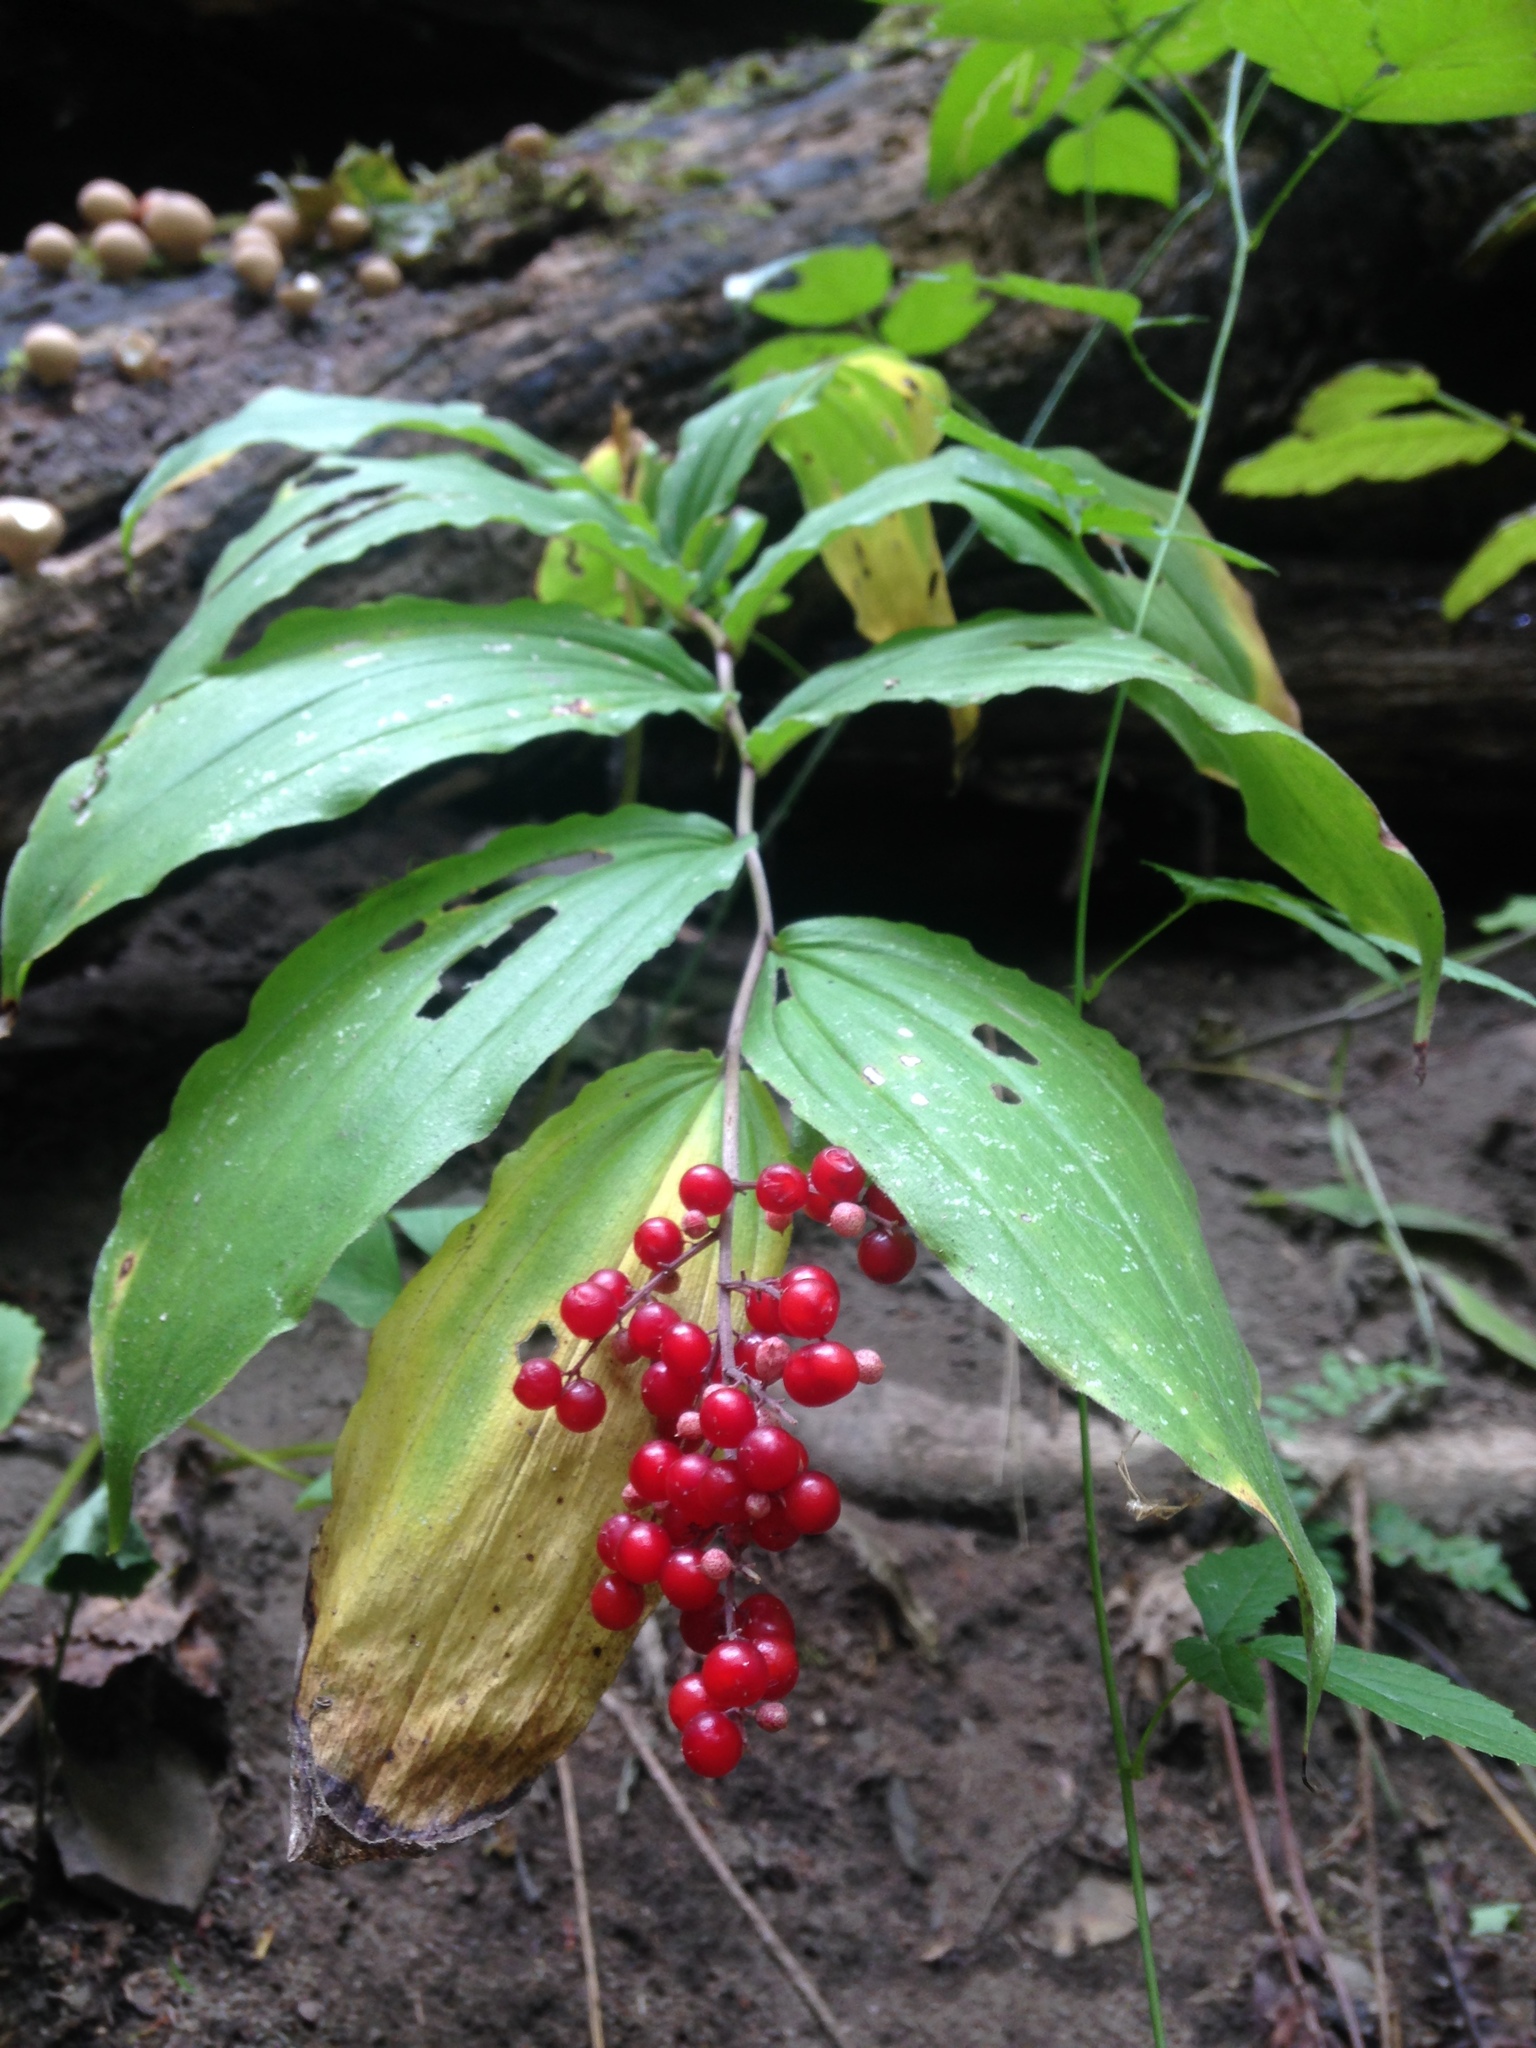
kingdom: Plantae
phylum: Tracheophyta
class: Liliopsida
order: Asparagales
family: Asparagaceae
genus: Maianthemum
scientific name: Maianthemum racemosum
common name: False spikenard
